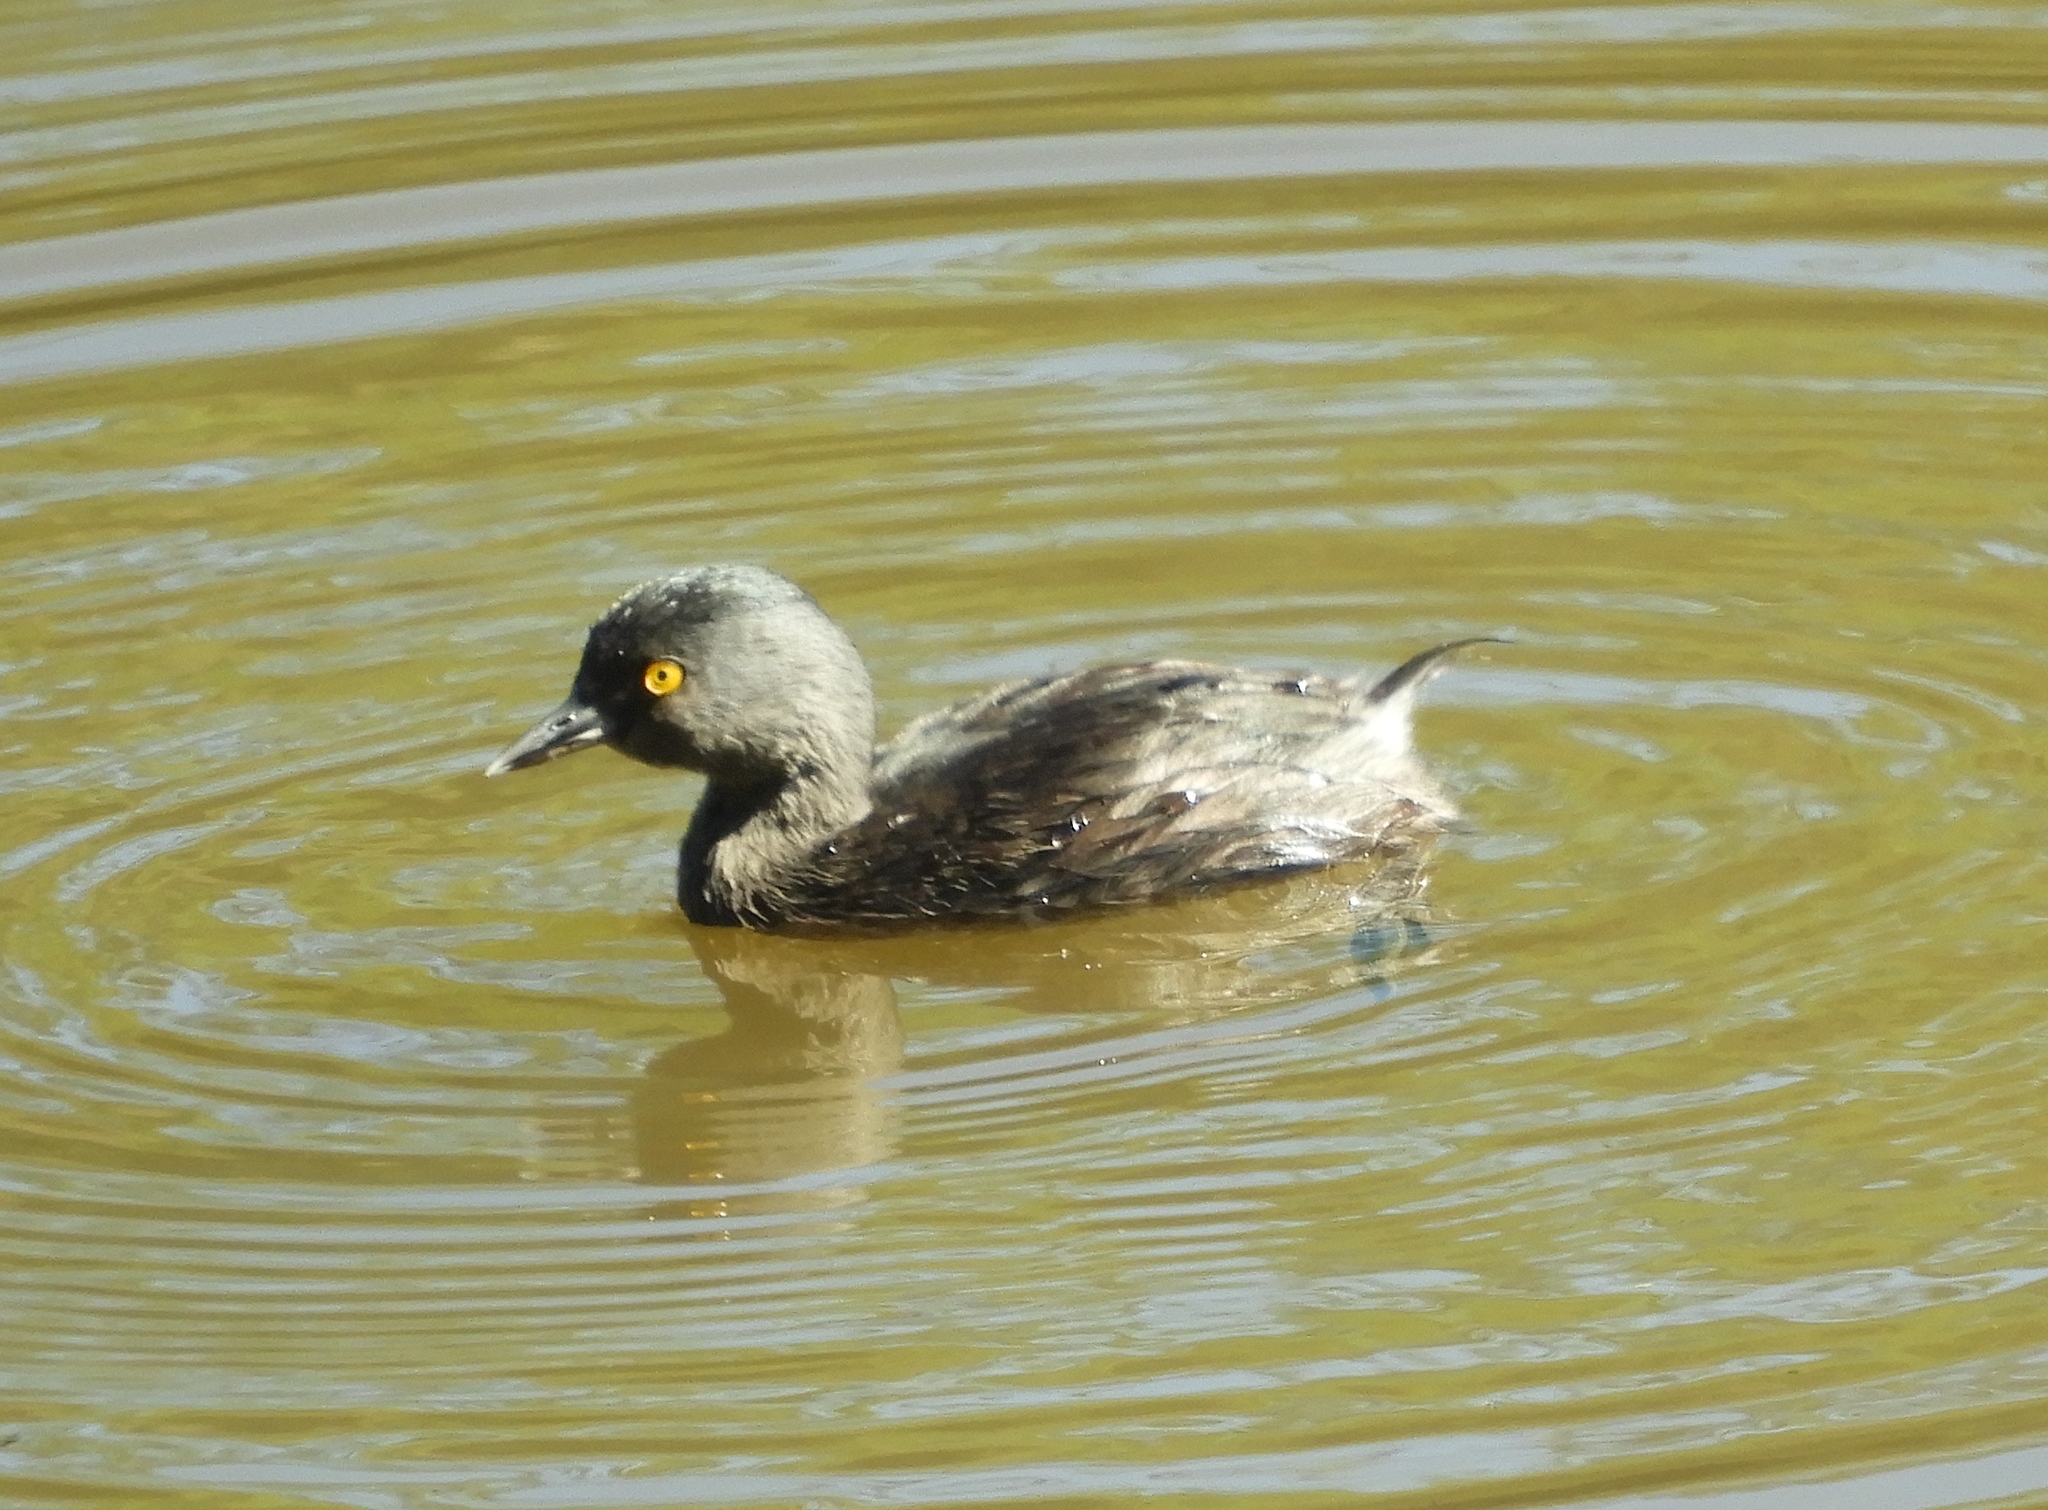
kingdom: Animalia
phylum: Chordata
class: Aves
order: Podicipediformes
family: Podicipedidae
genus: Tachybaptus
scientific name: Tachybaptus dominicus
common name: Least grebe
